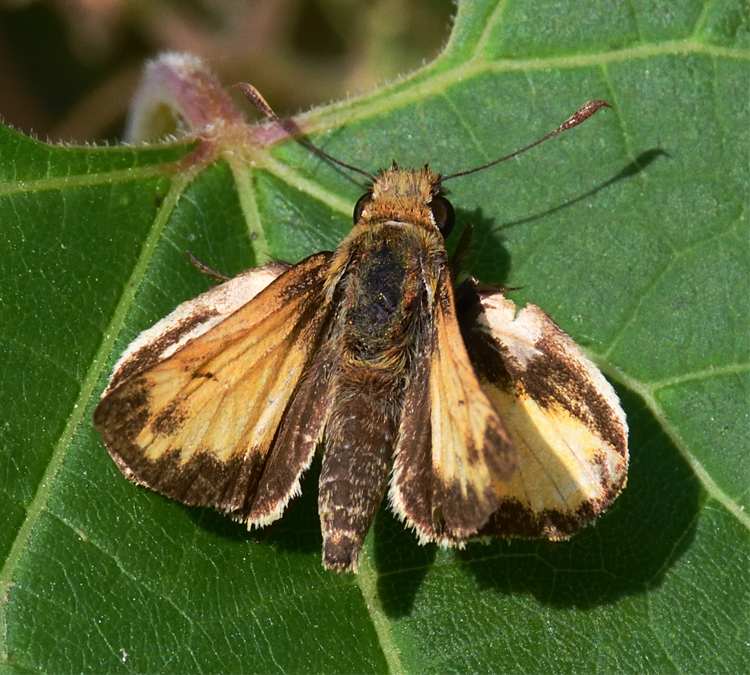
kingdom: Animalia
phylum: Arthropoda
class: Insecta
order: Lepidoptera
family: Hesperiidae
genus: Lon
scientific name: Lon zabulon
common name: Zabulon skipper
